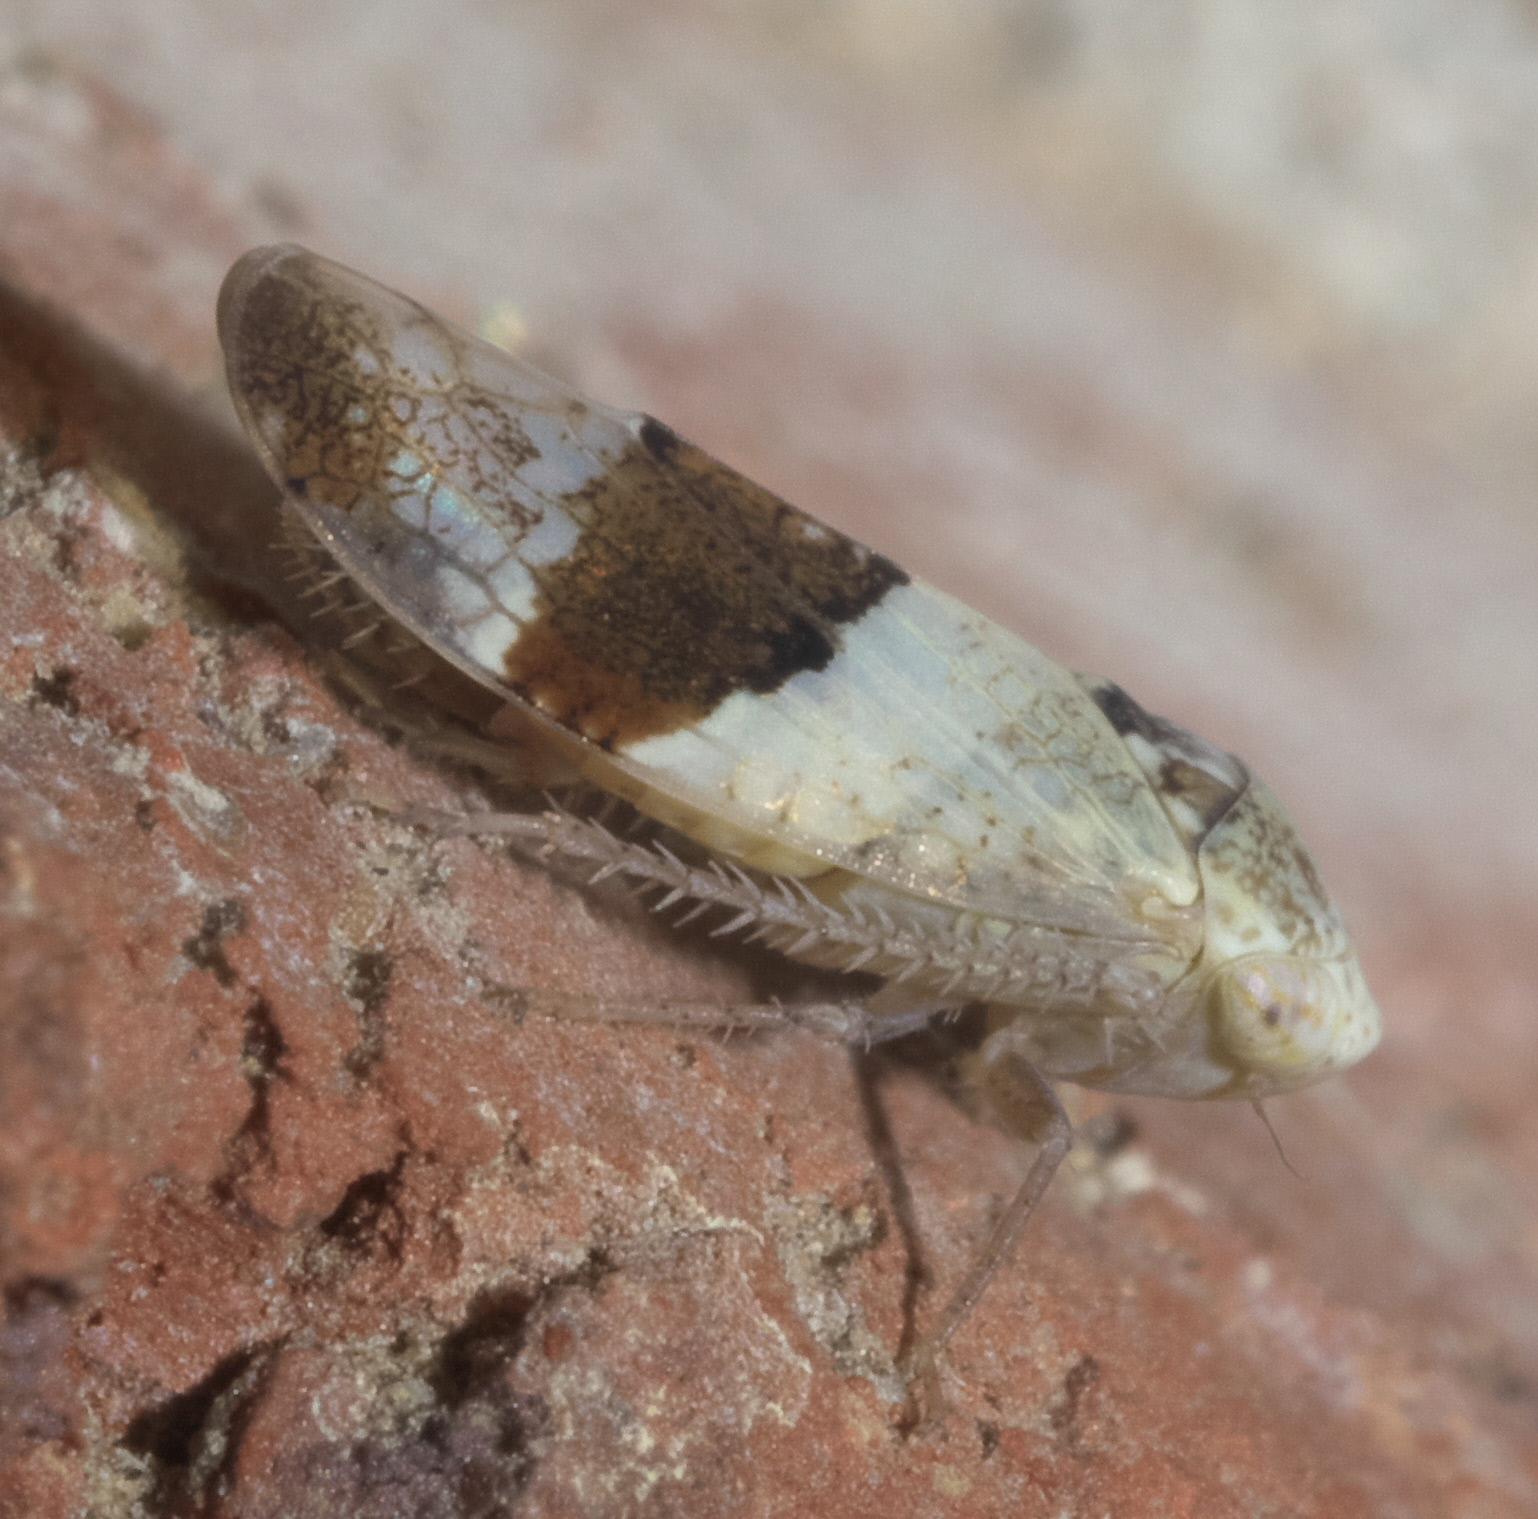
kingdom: Animalia
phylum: Arthropoda
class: Insecta
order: Hemiptera
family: Cicadellidae
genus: Norvellina
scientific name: Norvellina seminuda
